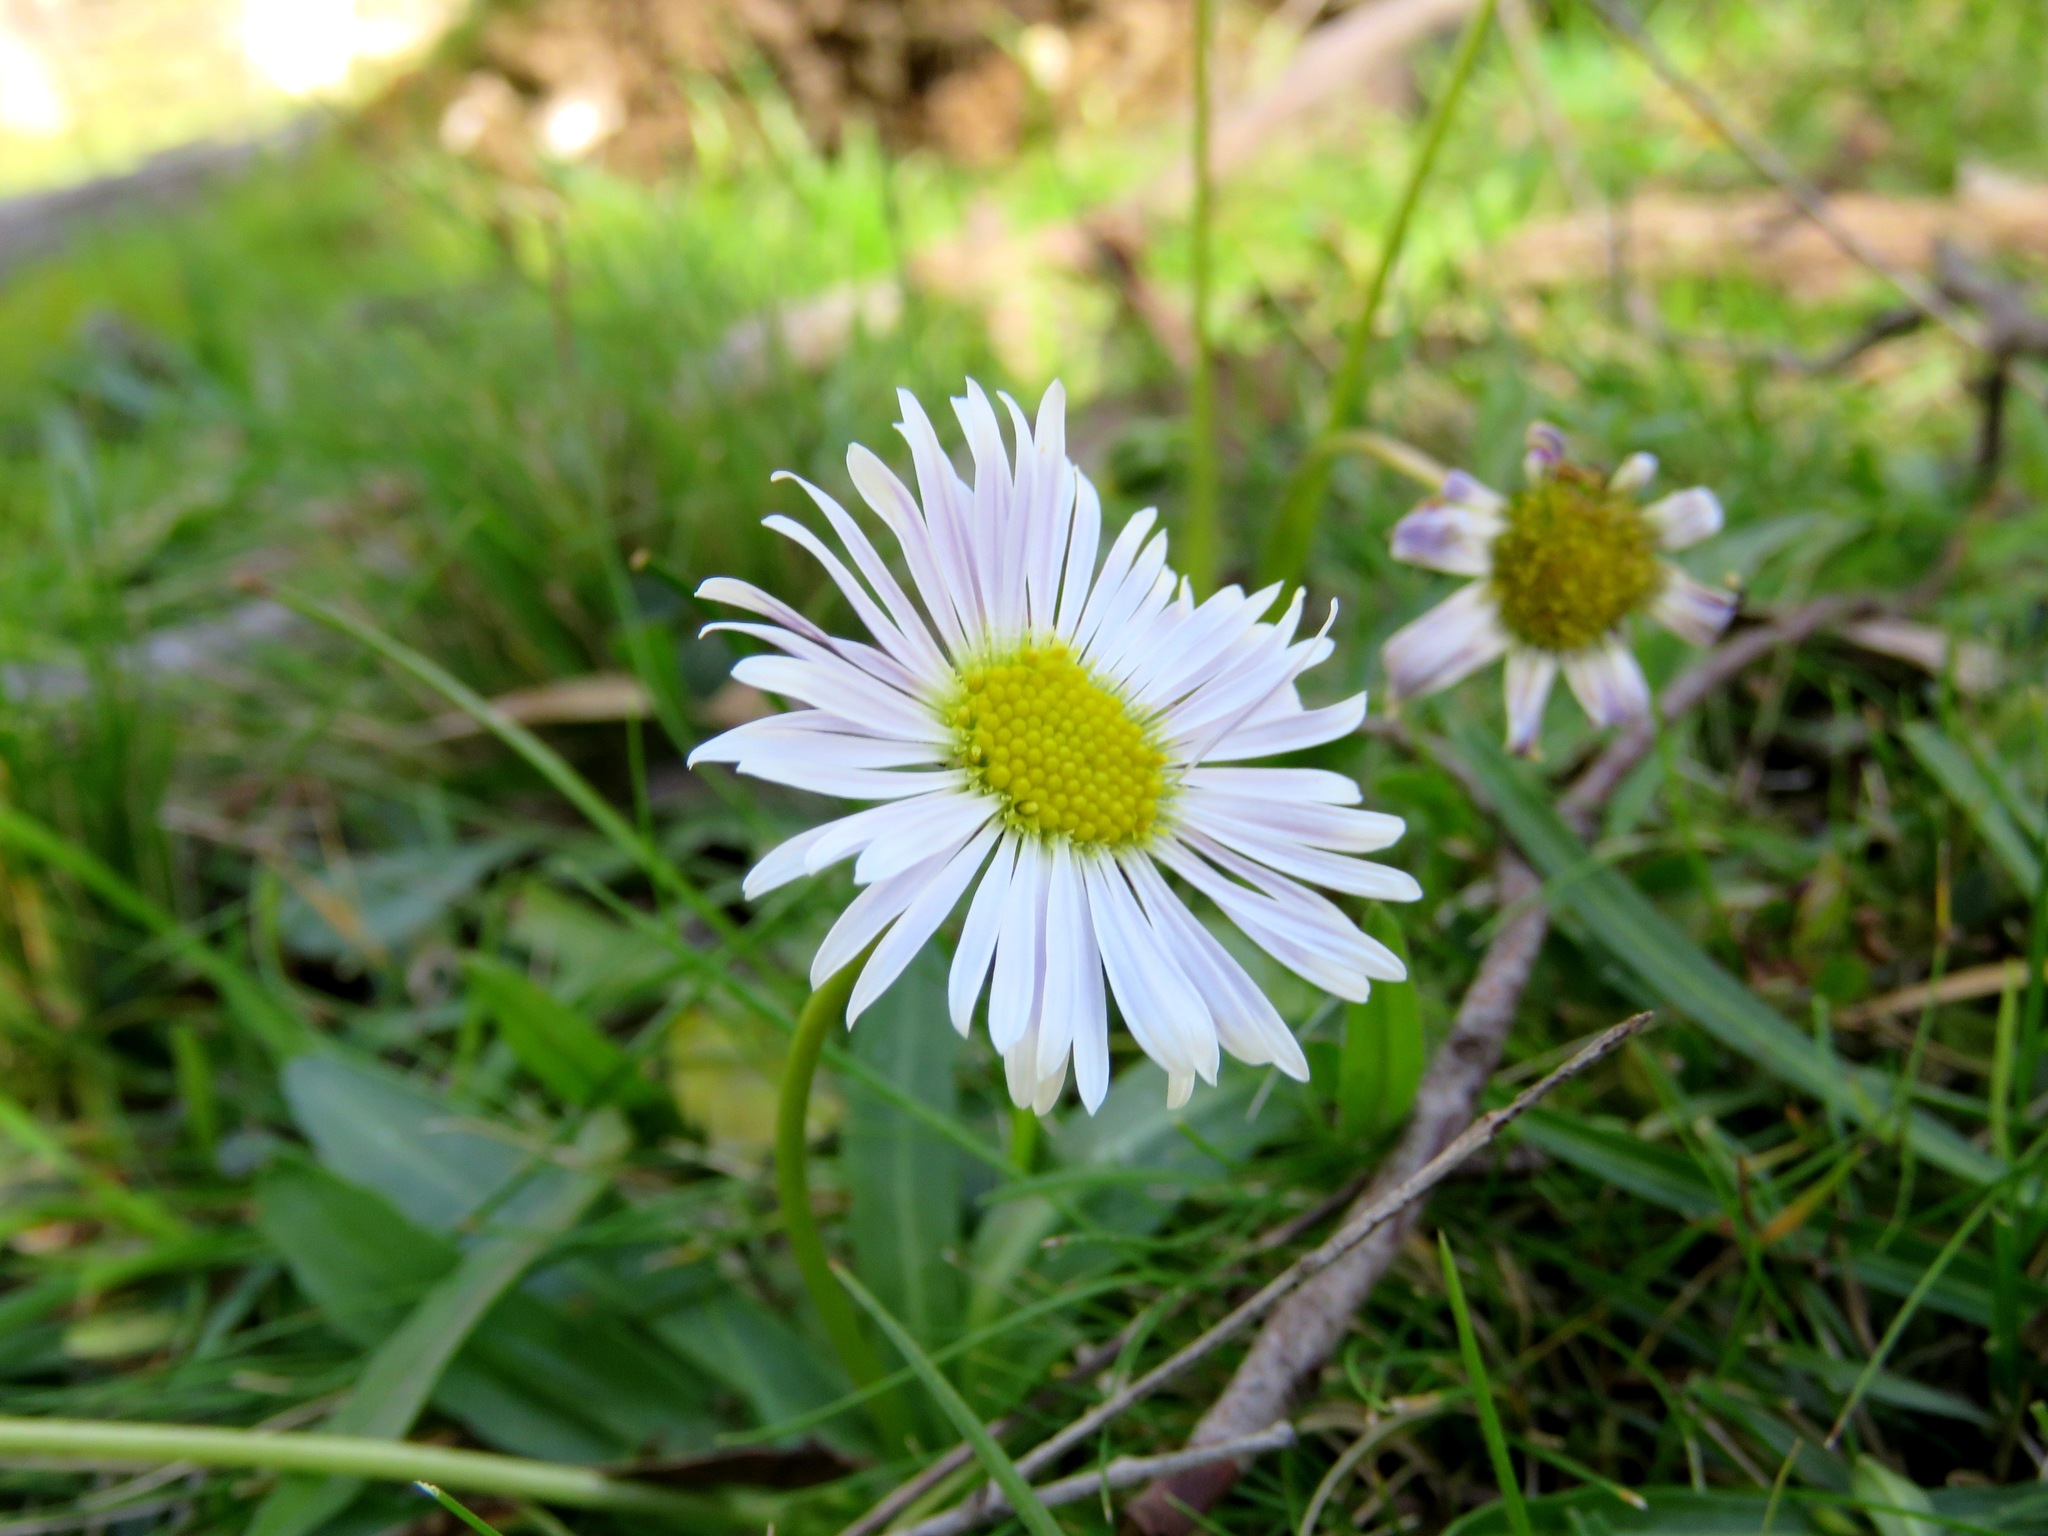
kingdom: Plantae
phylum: Tracheophyta
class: Magnoliopsida
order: Asterales
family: Asteraceae
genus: Brachyscome
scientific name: Brachyscome decipiens
